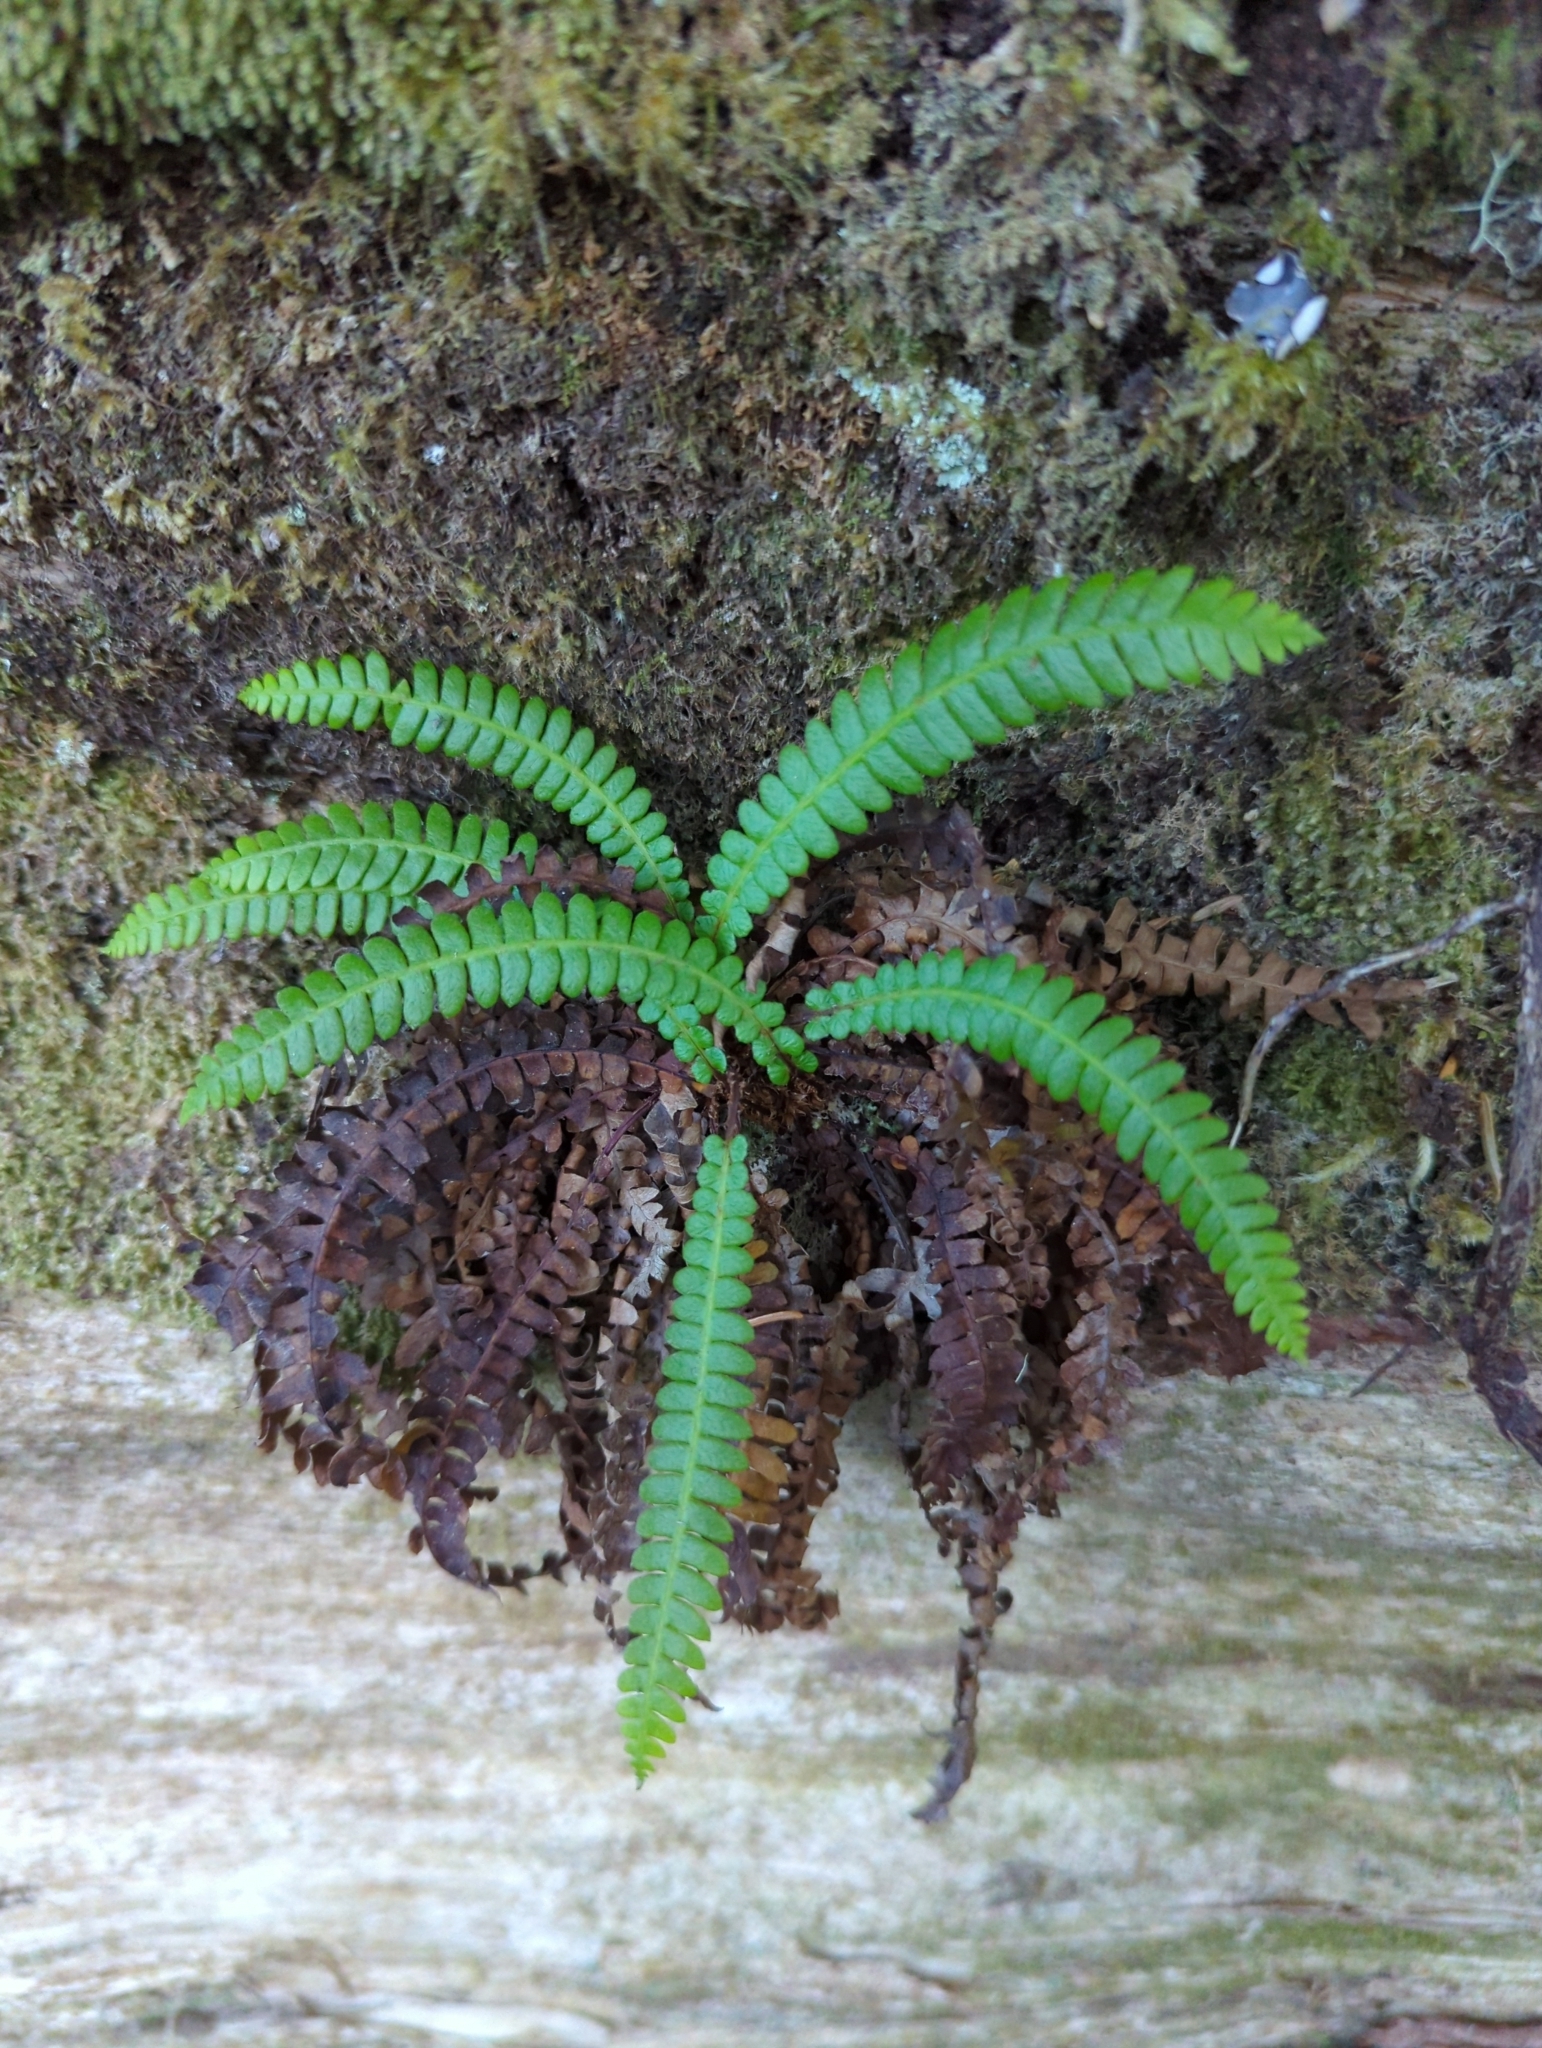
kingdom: Plantae
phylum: Tracheophyta
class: Polypodiopsida
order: Polypodiales
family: Blechnaceae
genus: Struthiopteris
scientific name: Struthiopteris spicant
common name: Deer fern
